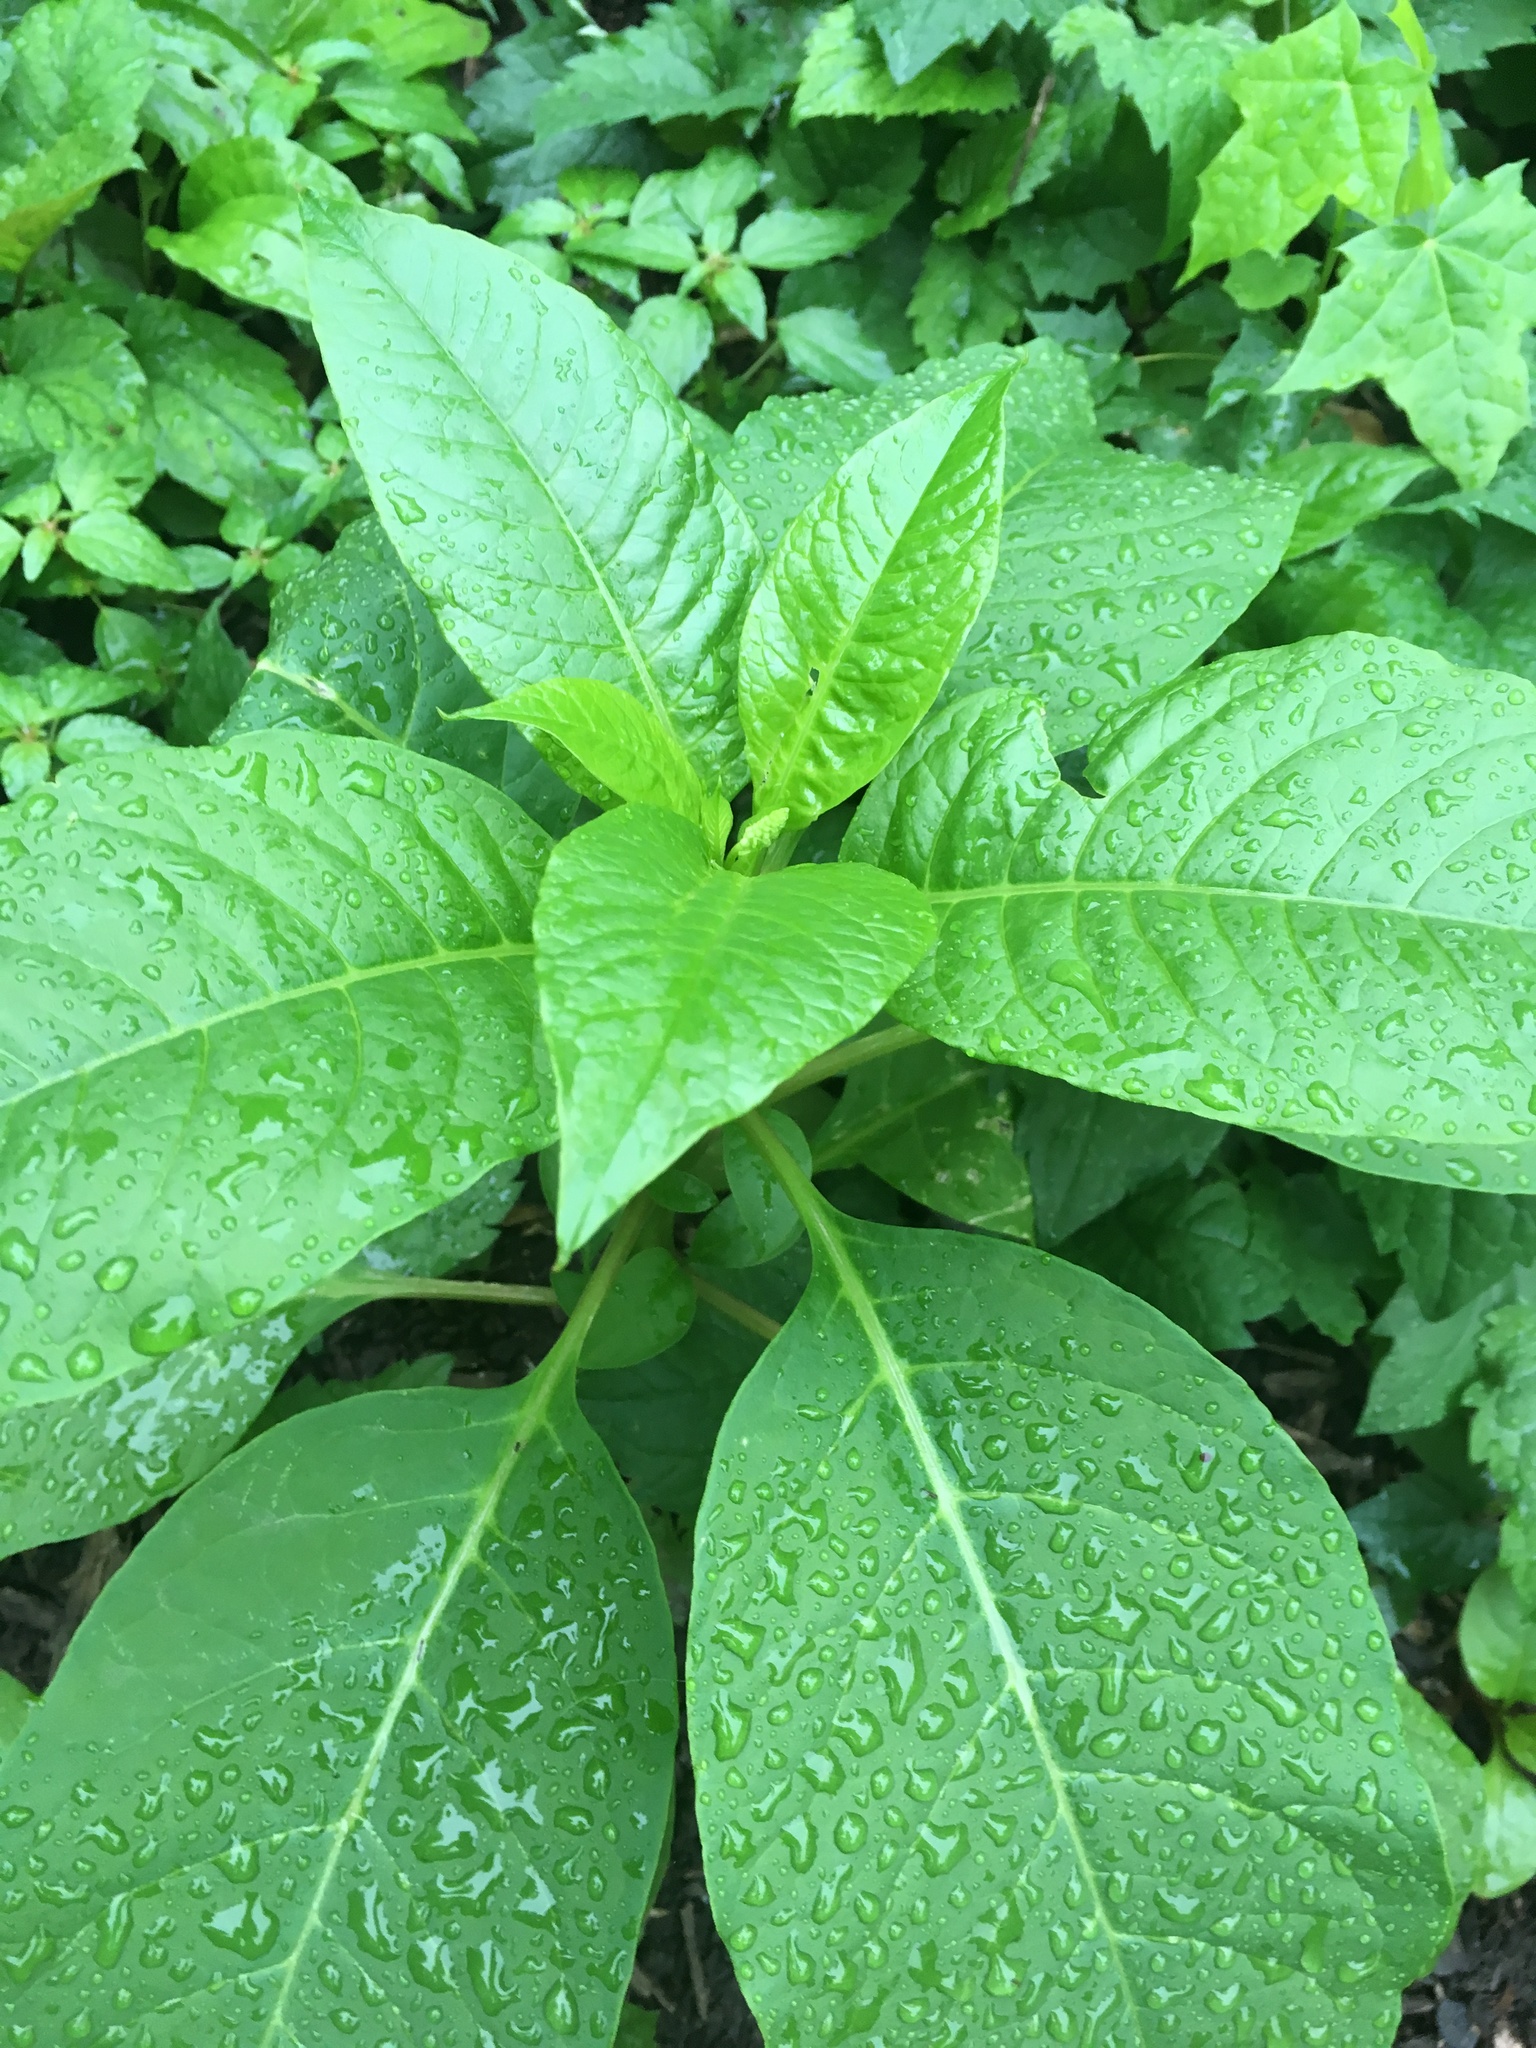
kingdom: Plantae
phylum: Tracheophyta
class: Magnoliopsida
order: Caryophyllales
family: Phytolaccaceae
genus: Phytolacca
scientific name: Phytolacca americana
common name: American pokeweed
